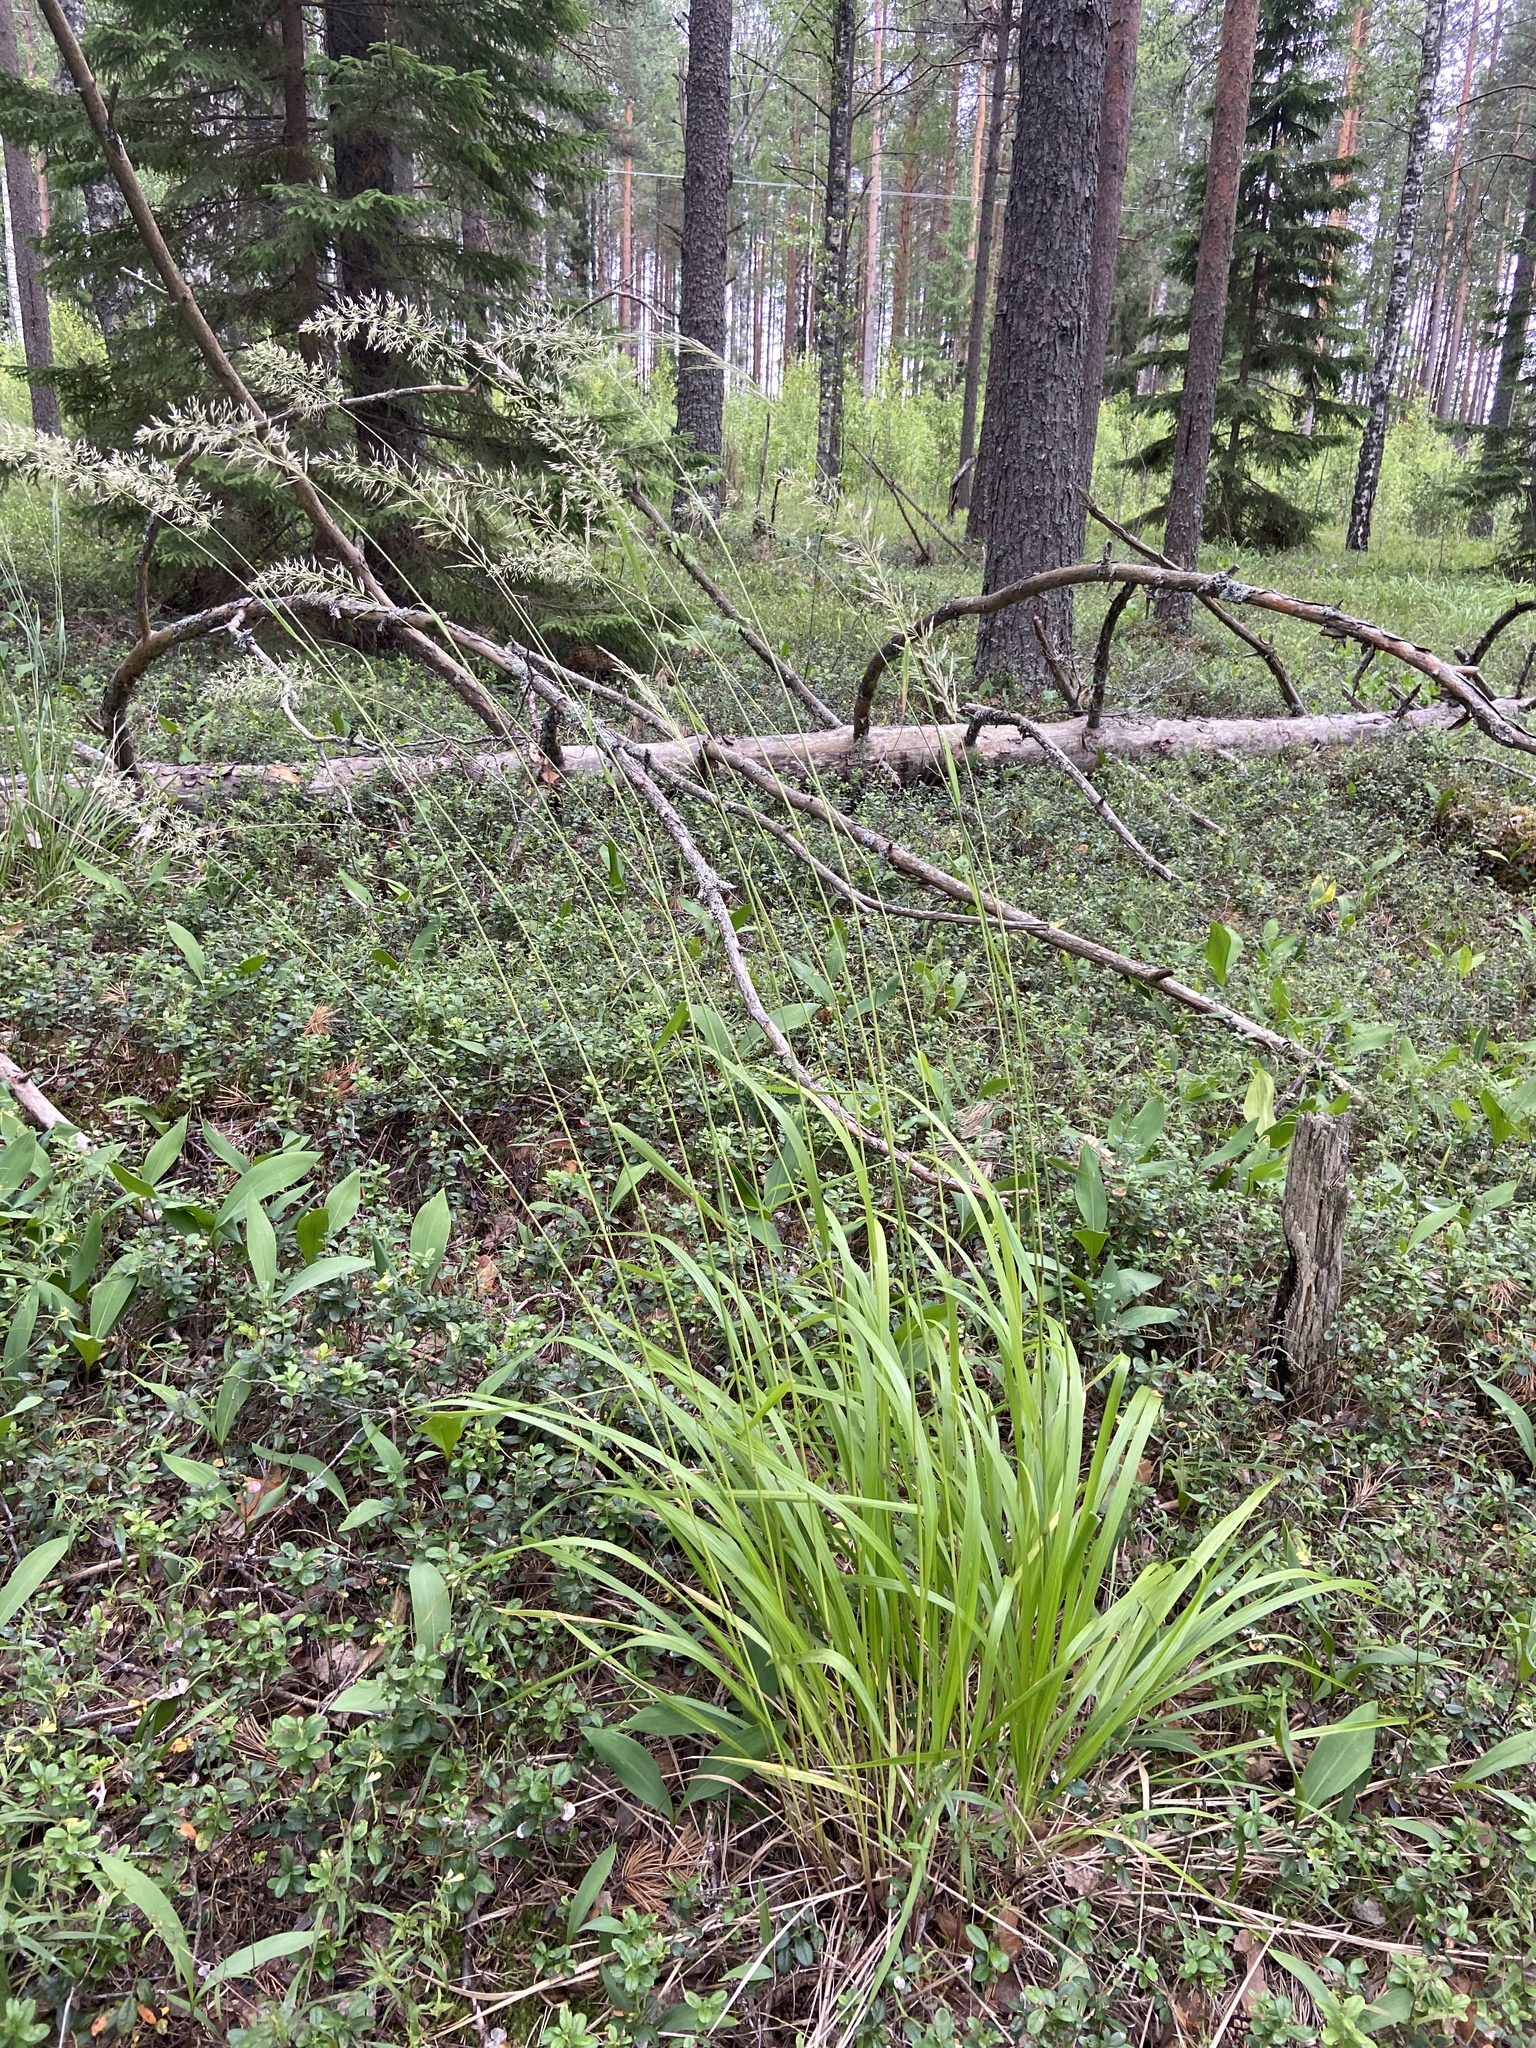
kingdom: Plantae
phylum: Tracheophyta
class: Liliopsida
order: Poales
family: Poaceae
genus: Calamagrostis
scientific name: Calamagrostis arundinacea
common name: Metskastik
